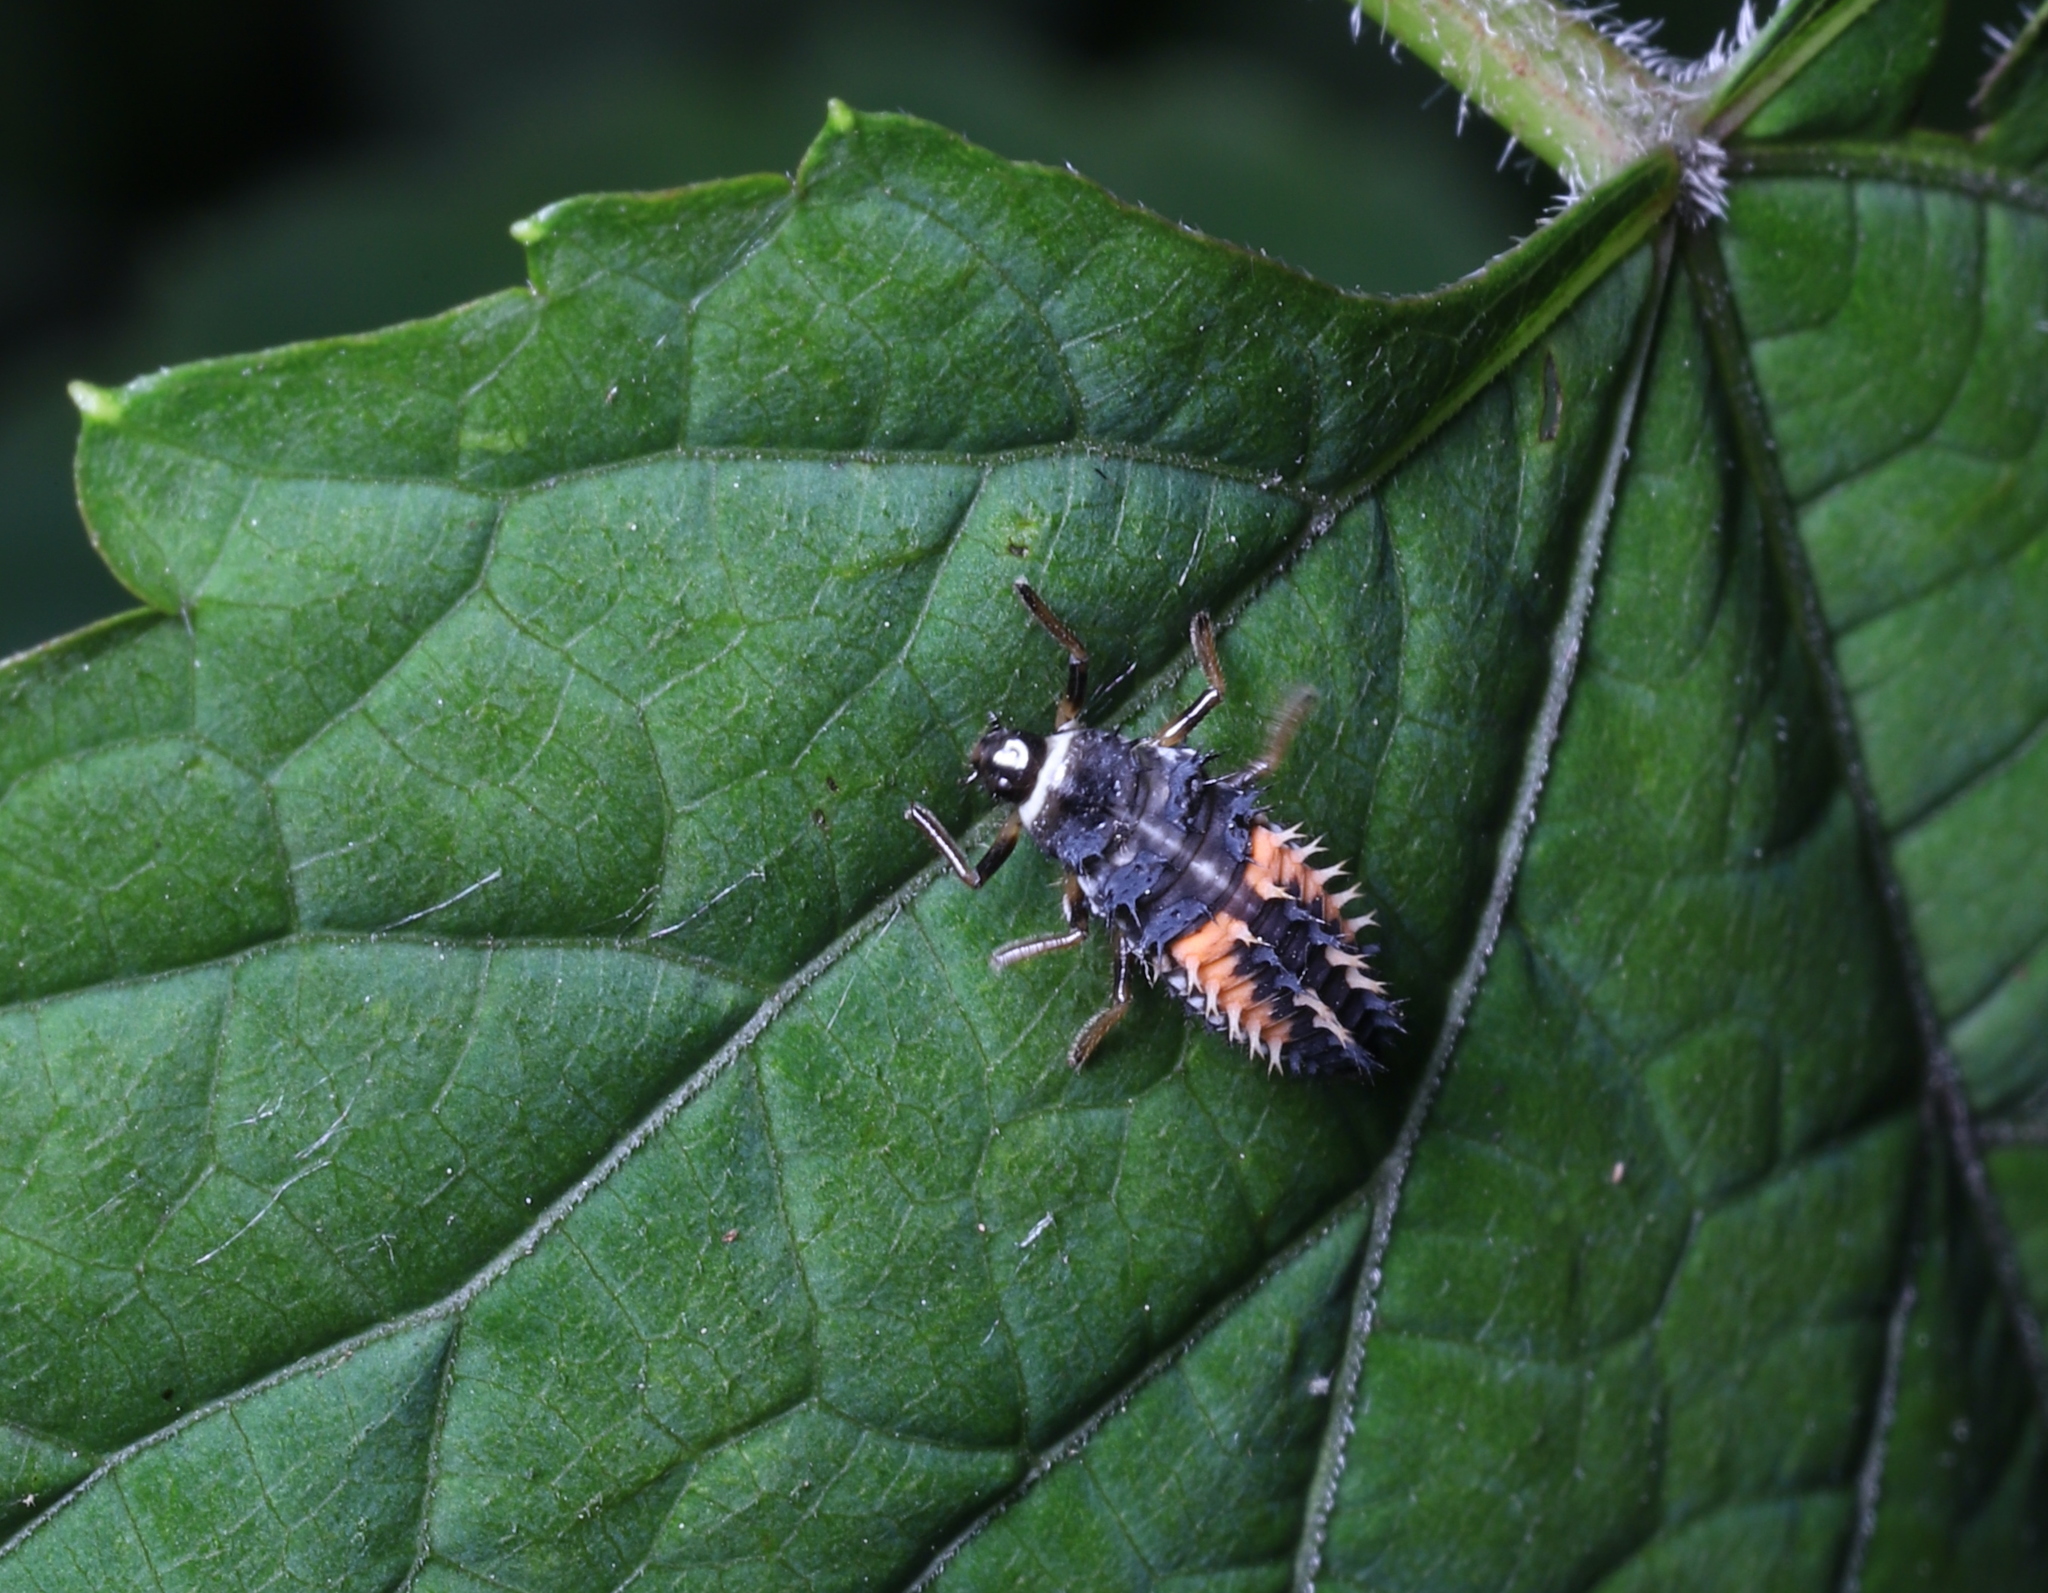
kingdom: Animalia
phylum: Arthropoda
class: Insecta
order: Coleoptera
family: Coccinellidae
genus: Harmonia
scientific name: Harmonia axyridis
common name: Harlequin ladybird
